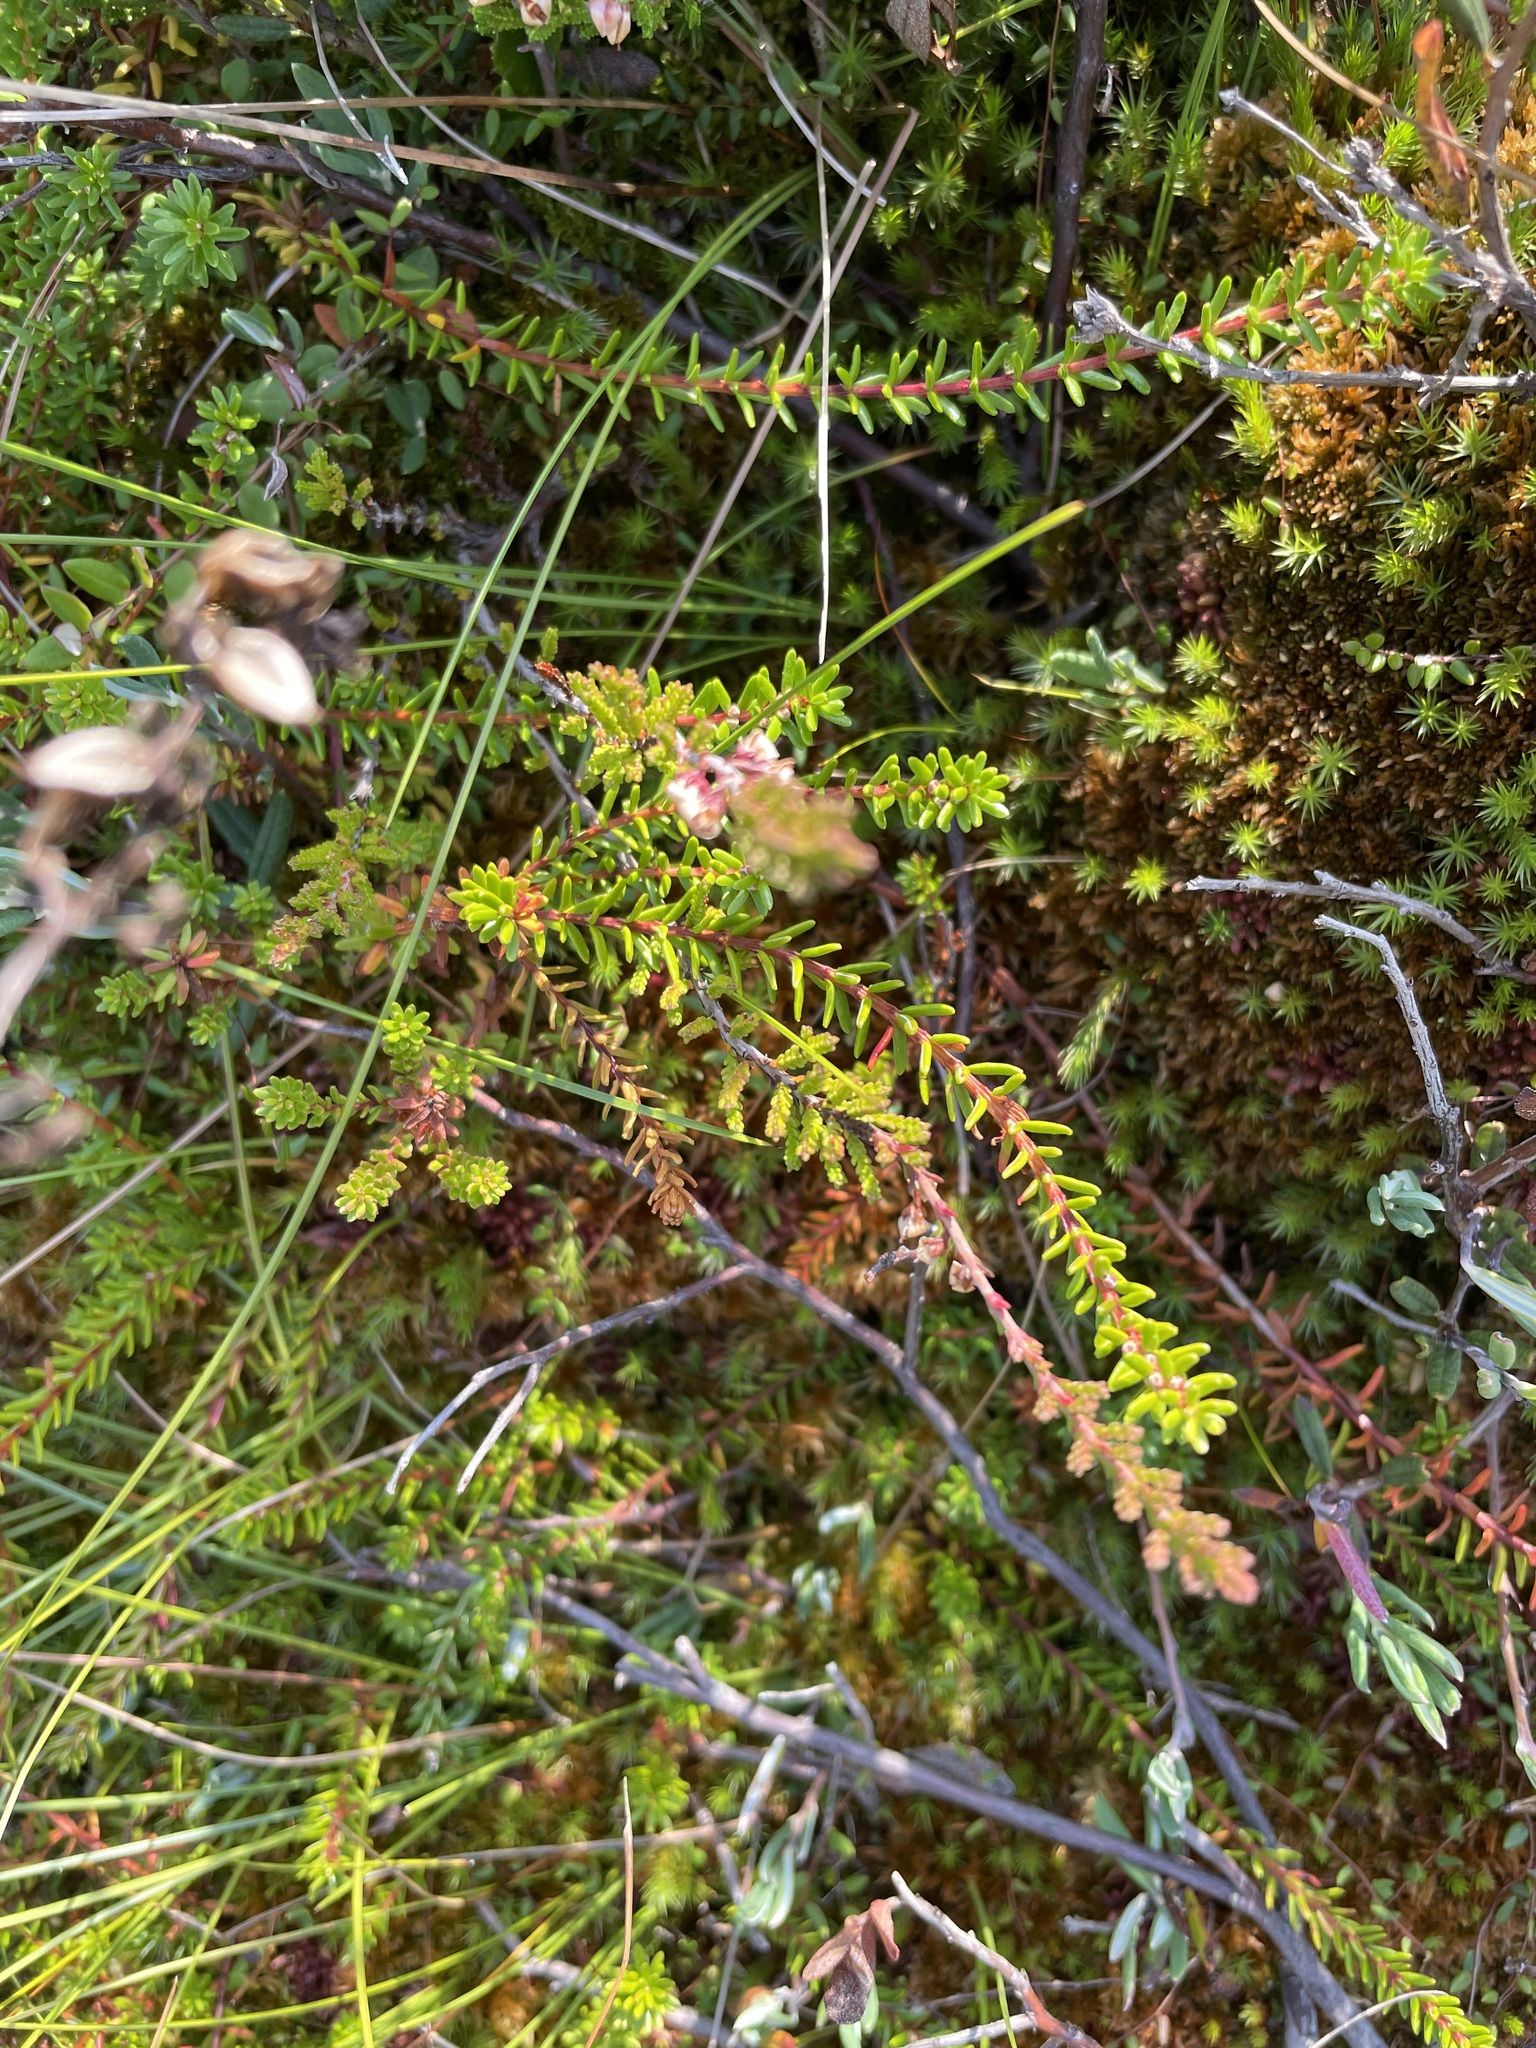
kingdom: Plantae
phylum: Tracheophyta
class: Magnoliopsida
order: Ericales
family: Ericaceae
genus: Empetrum
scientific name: Empetrum nigrum
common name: Black crowberry
